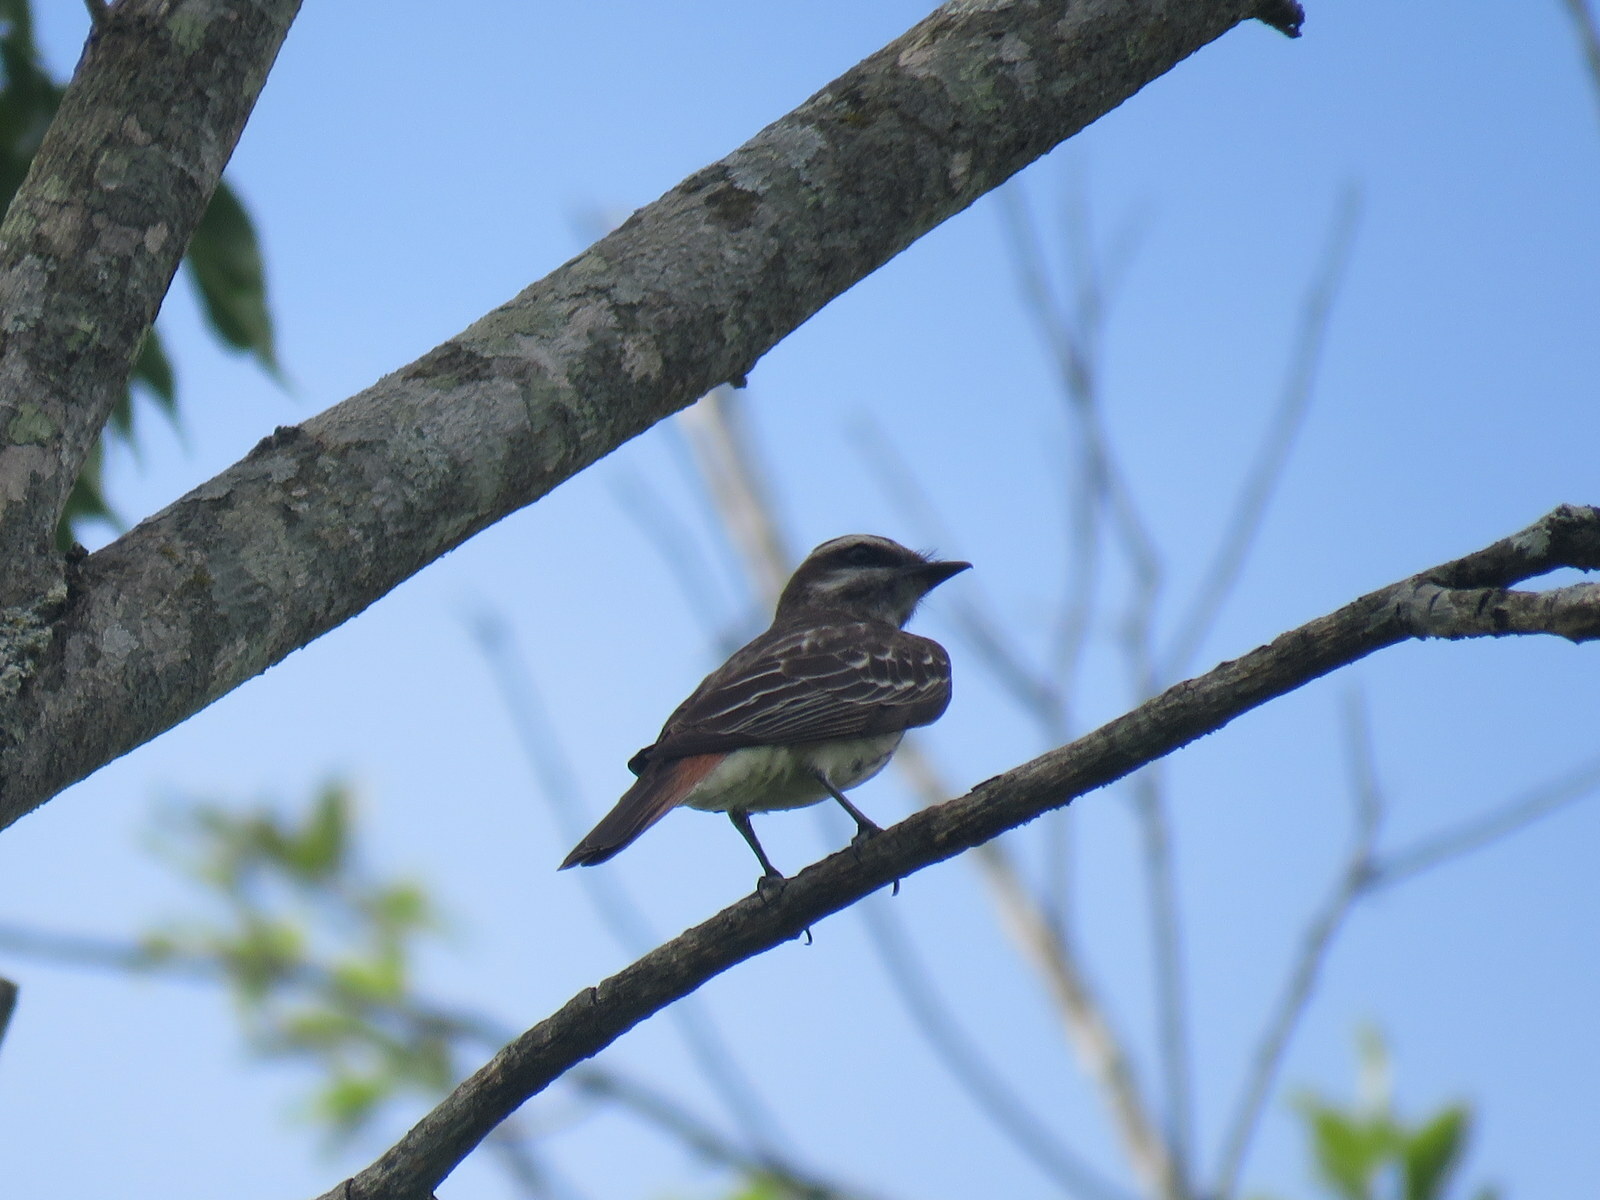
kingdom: Animalia
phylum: Chordata
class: Aves
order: Passeriformes
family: Tyrannidae
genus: Empidonomus
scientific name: Empidonomus varius
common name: Variegated flycatcher
